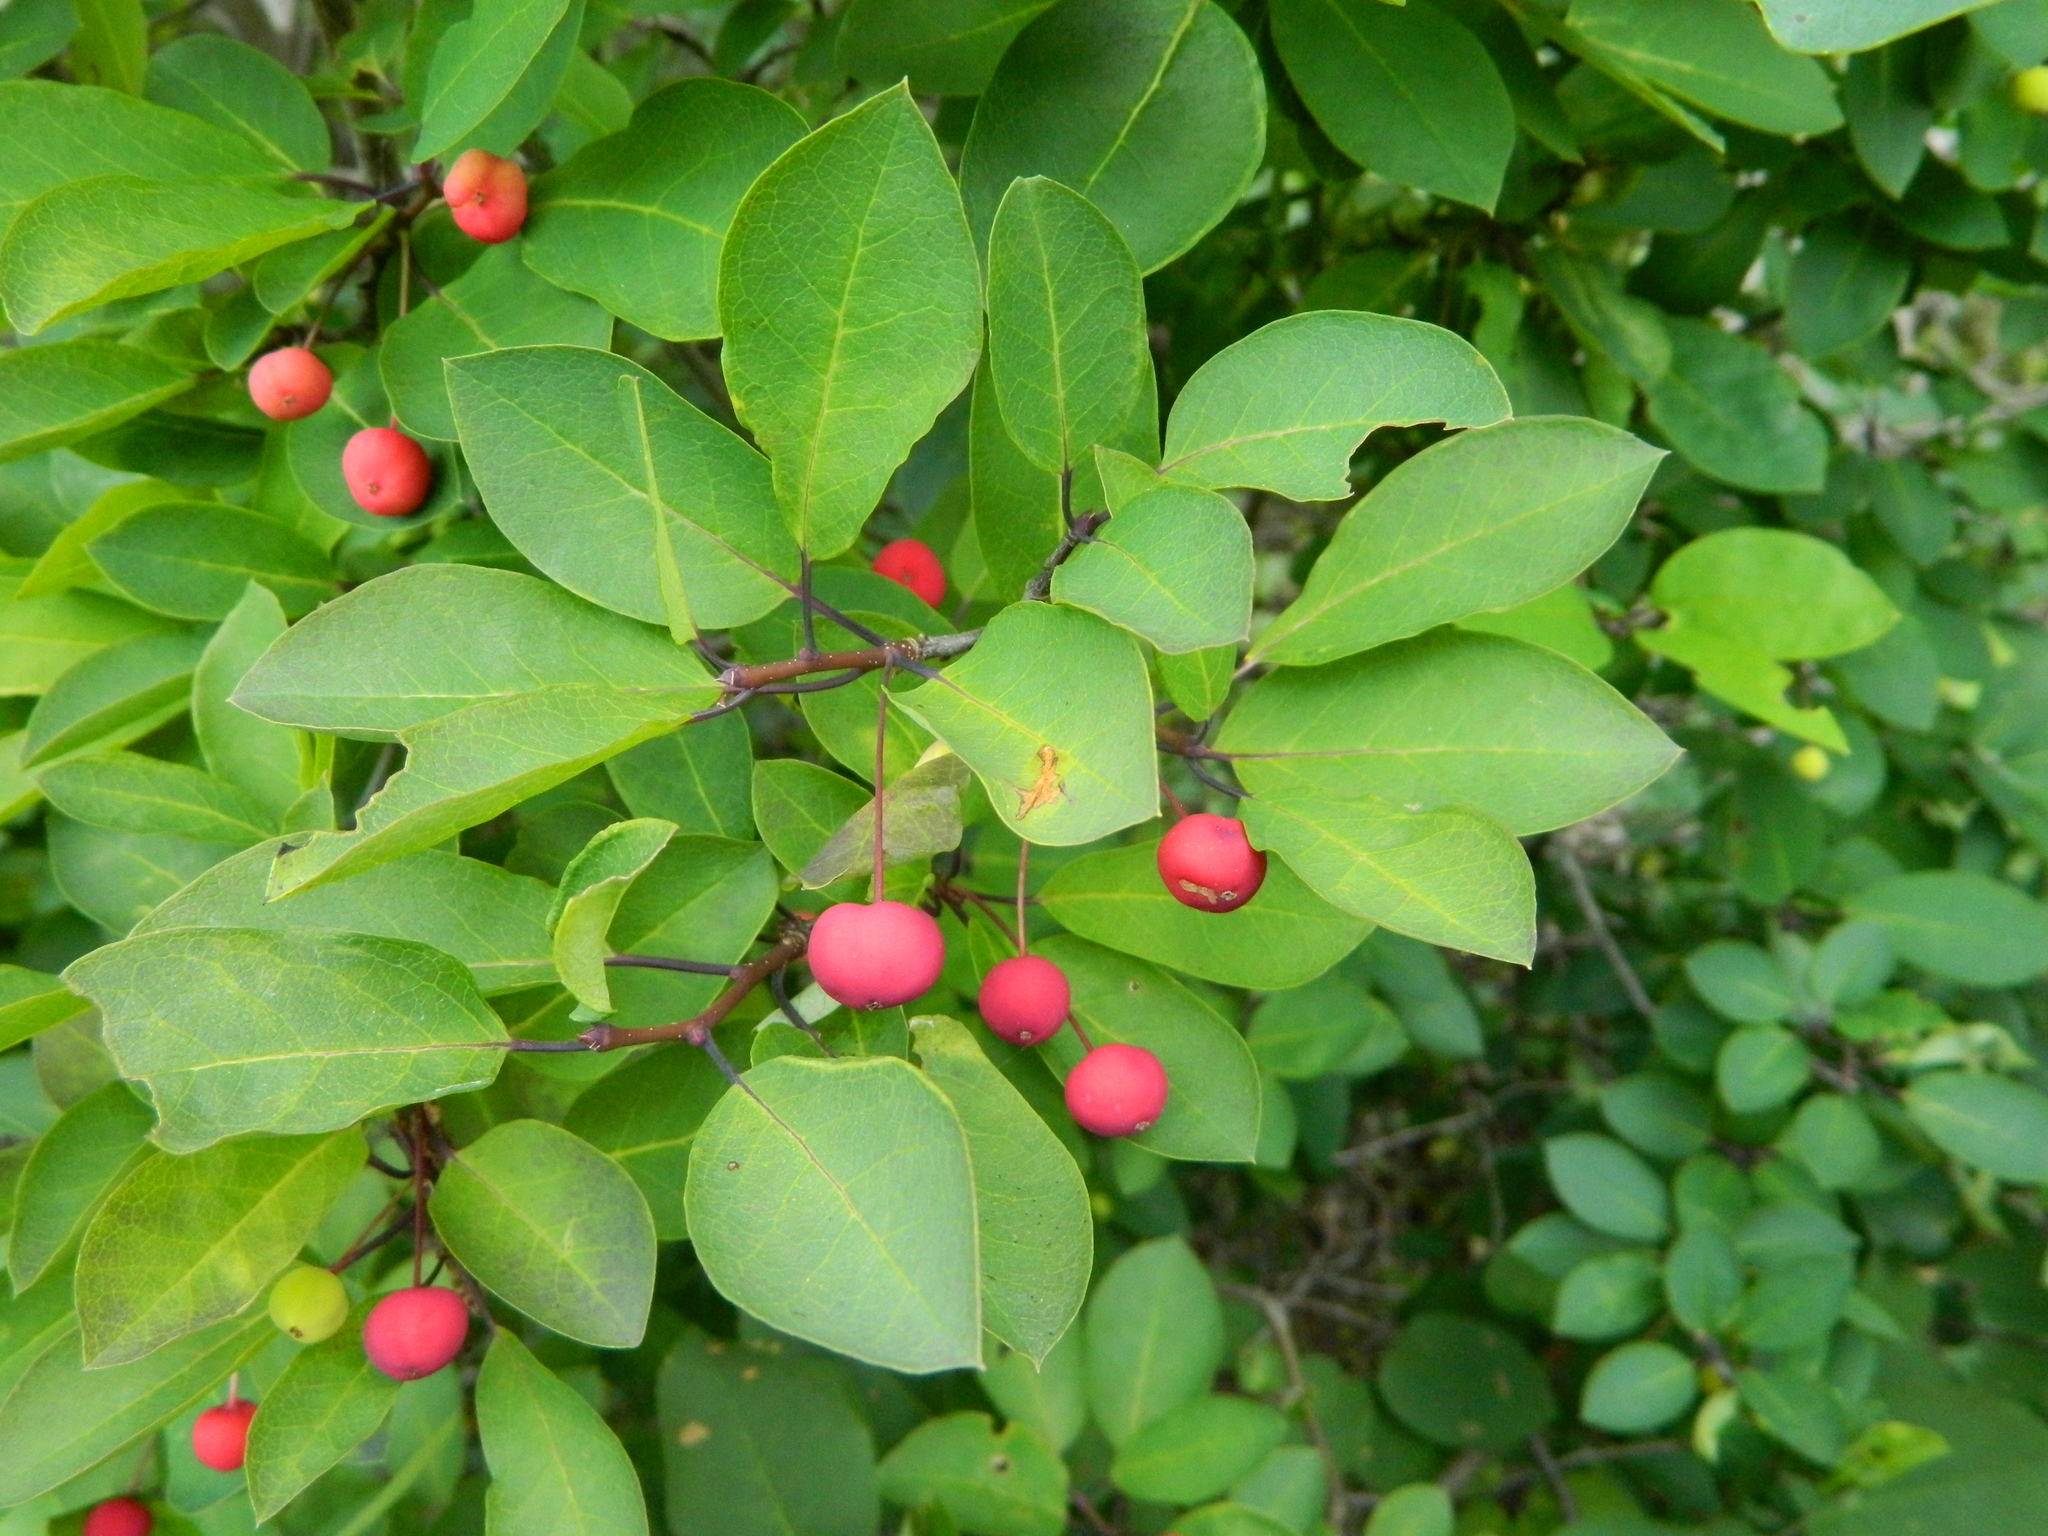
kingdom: Plantae
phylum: Tracheophyta
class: Magnoliopsida
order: Aquifoliales
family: Aquifoliaceae
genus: Ilex
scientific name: Ilex mucronata
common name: Catberry
